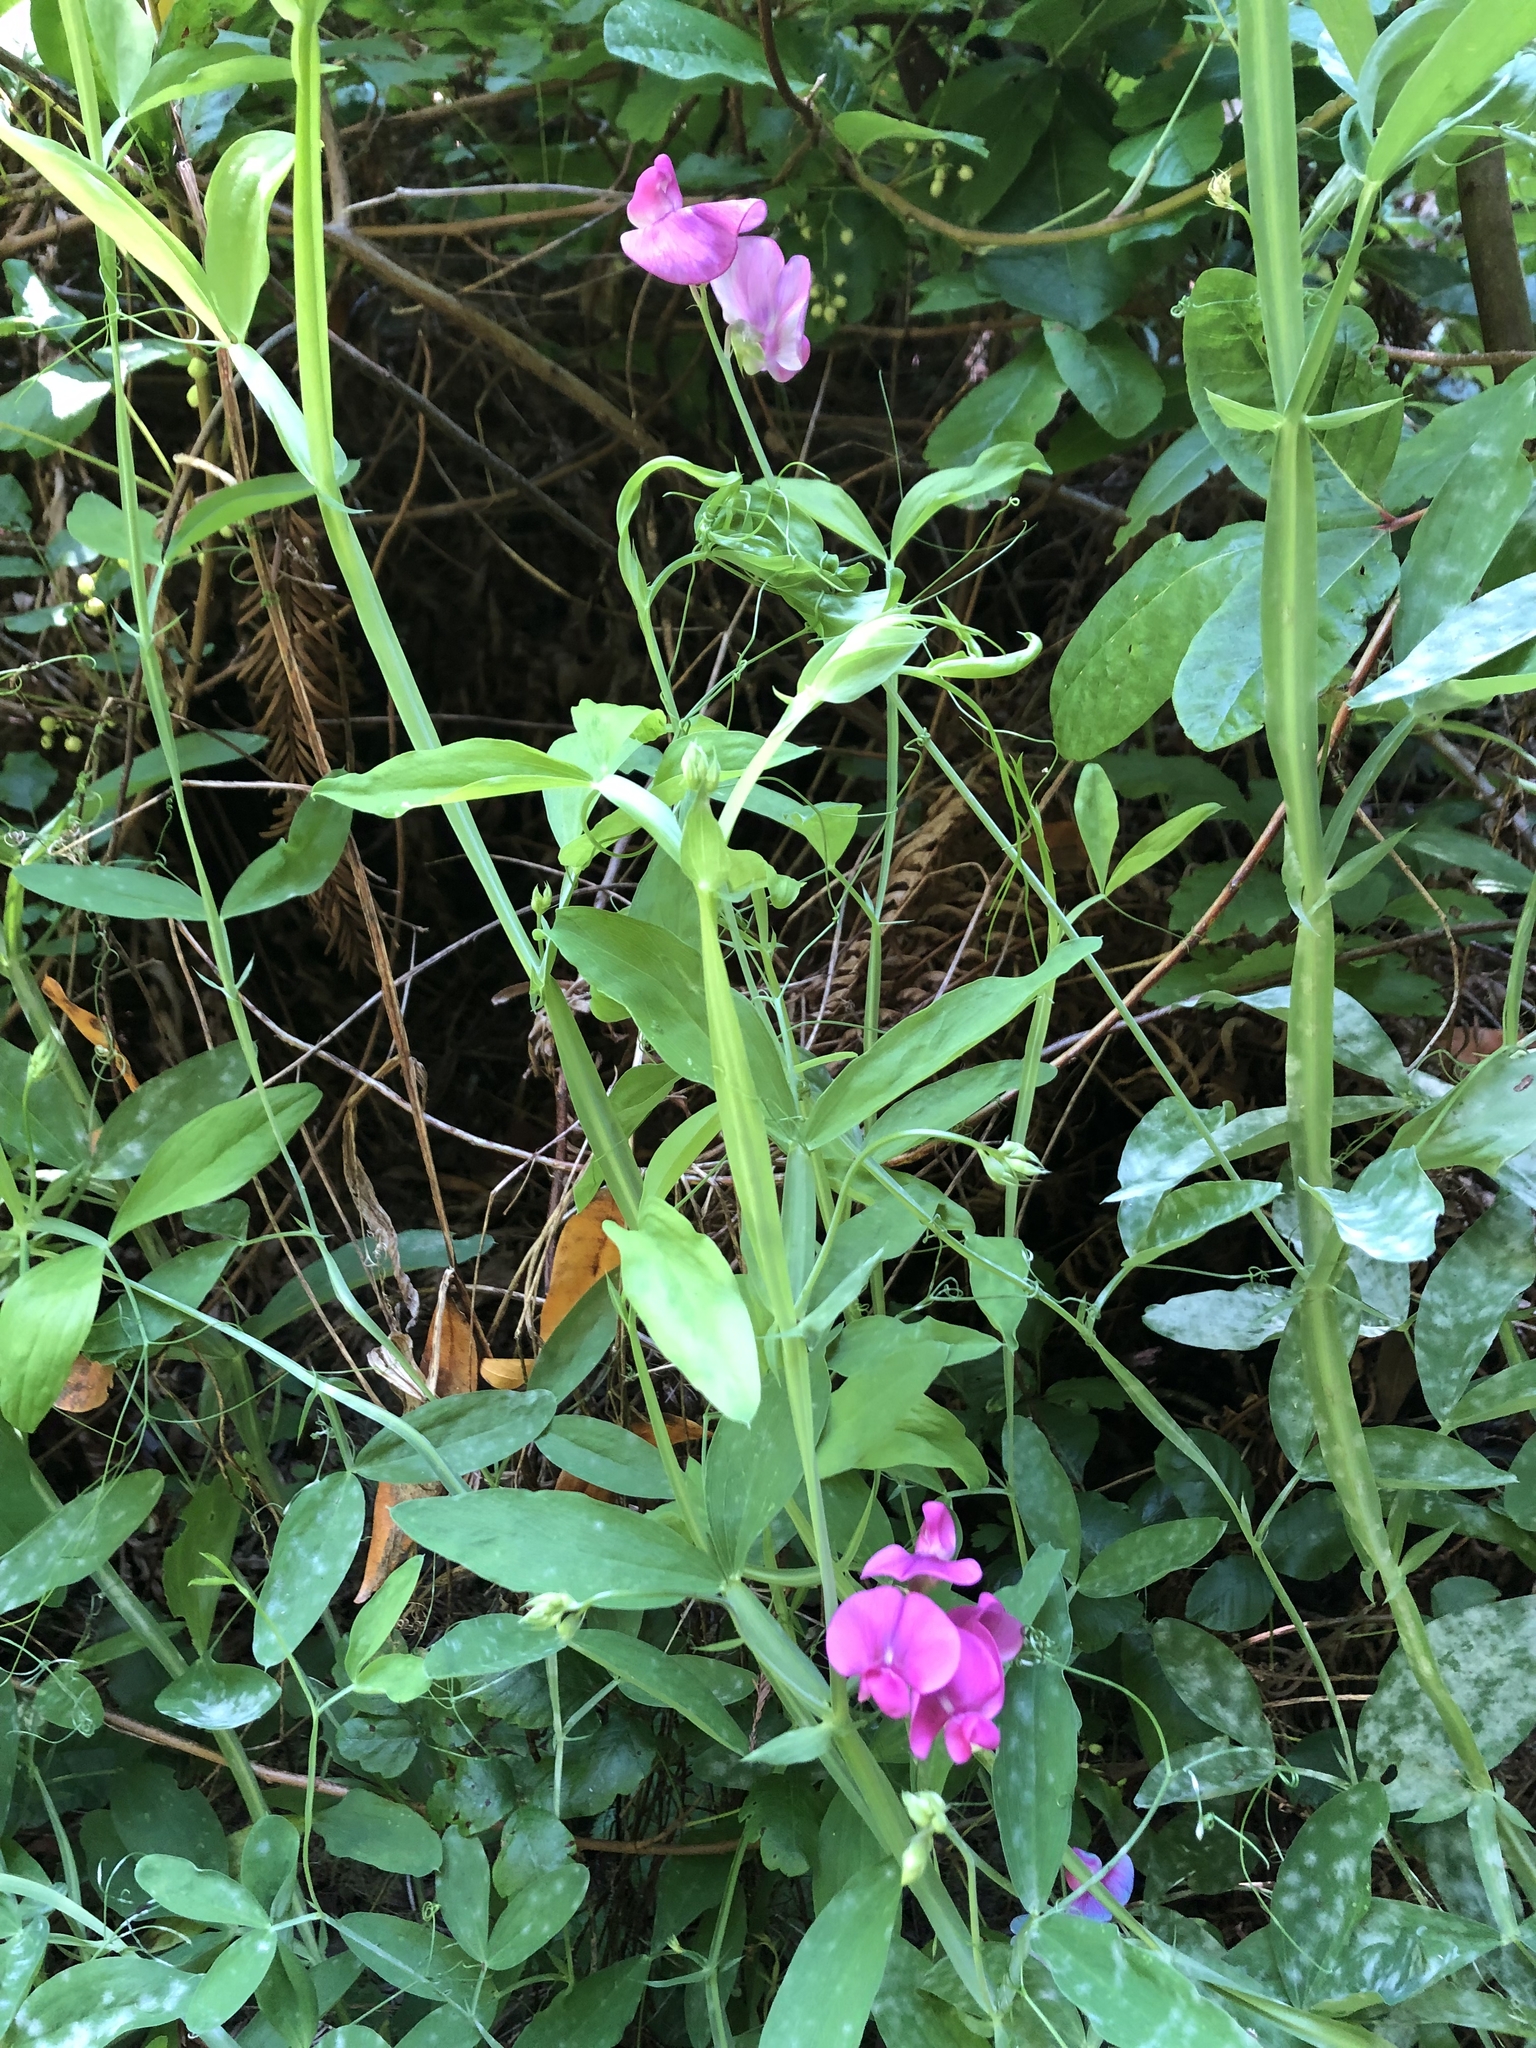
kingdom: Plantae
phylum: Tracheophyta
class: Magnoliopsida
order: Fabales
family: Fabaceae
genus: Lathyrus
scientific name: Lathyrus latifolius
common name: Perennial pea
